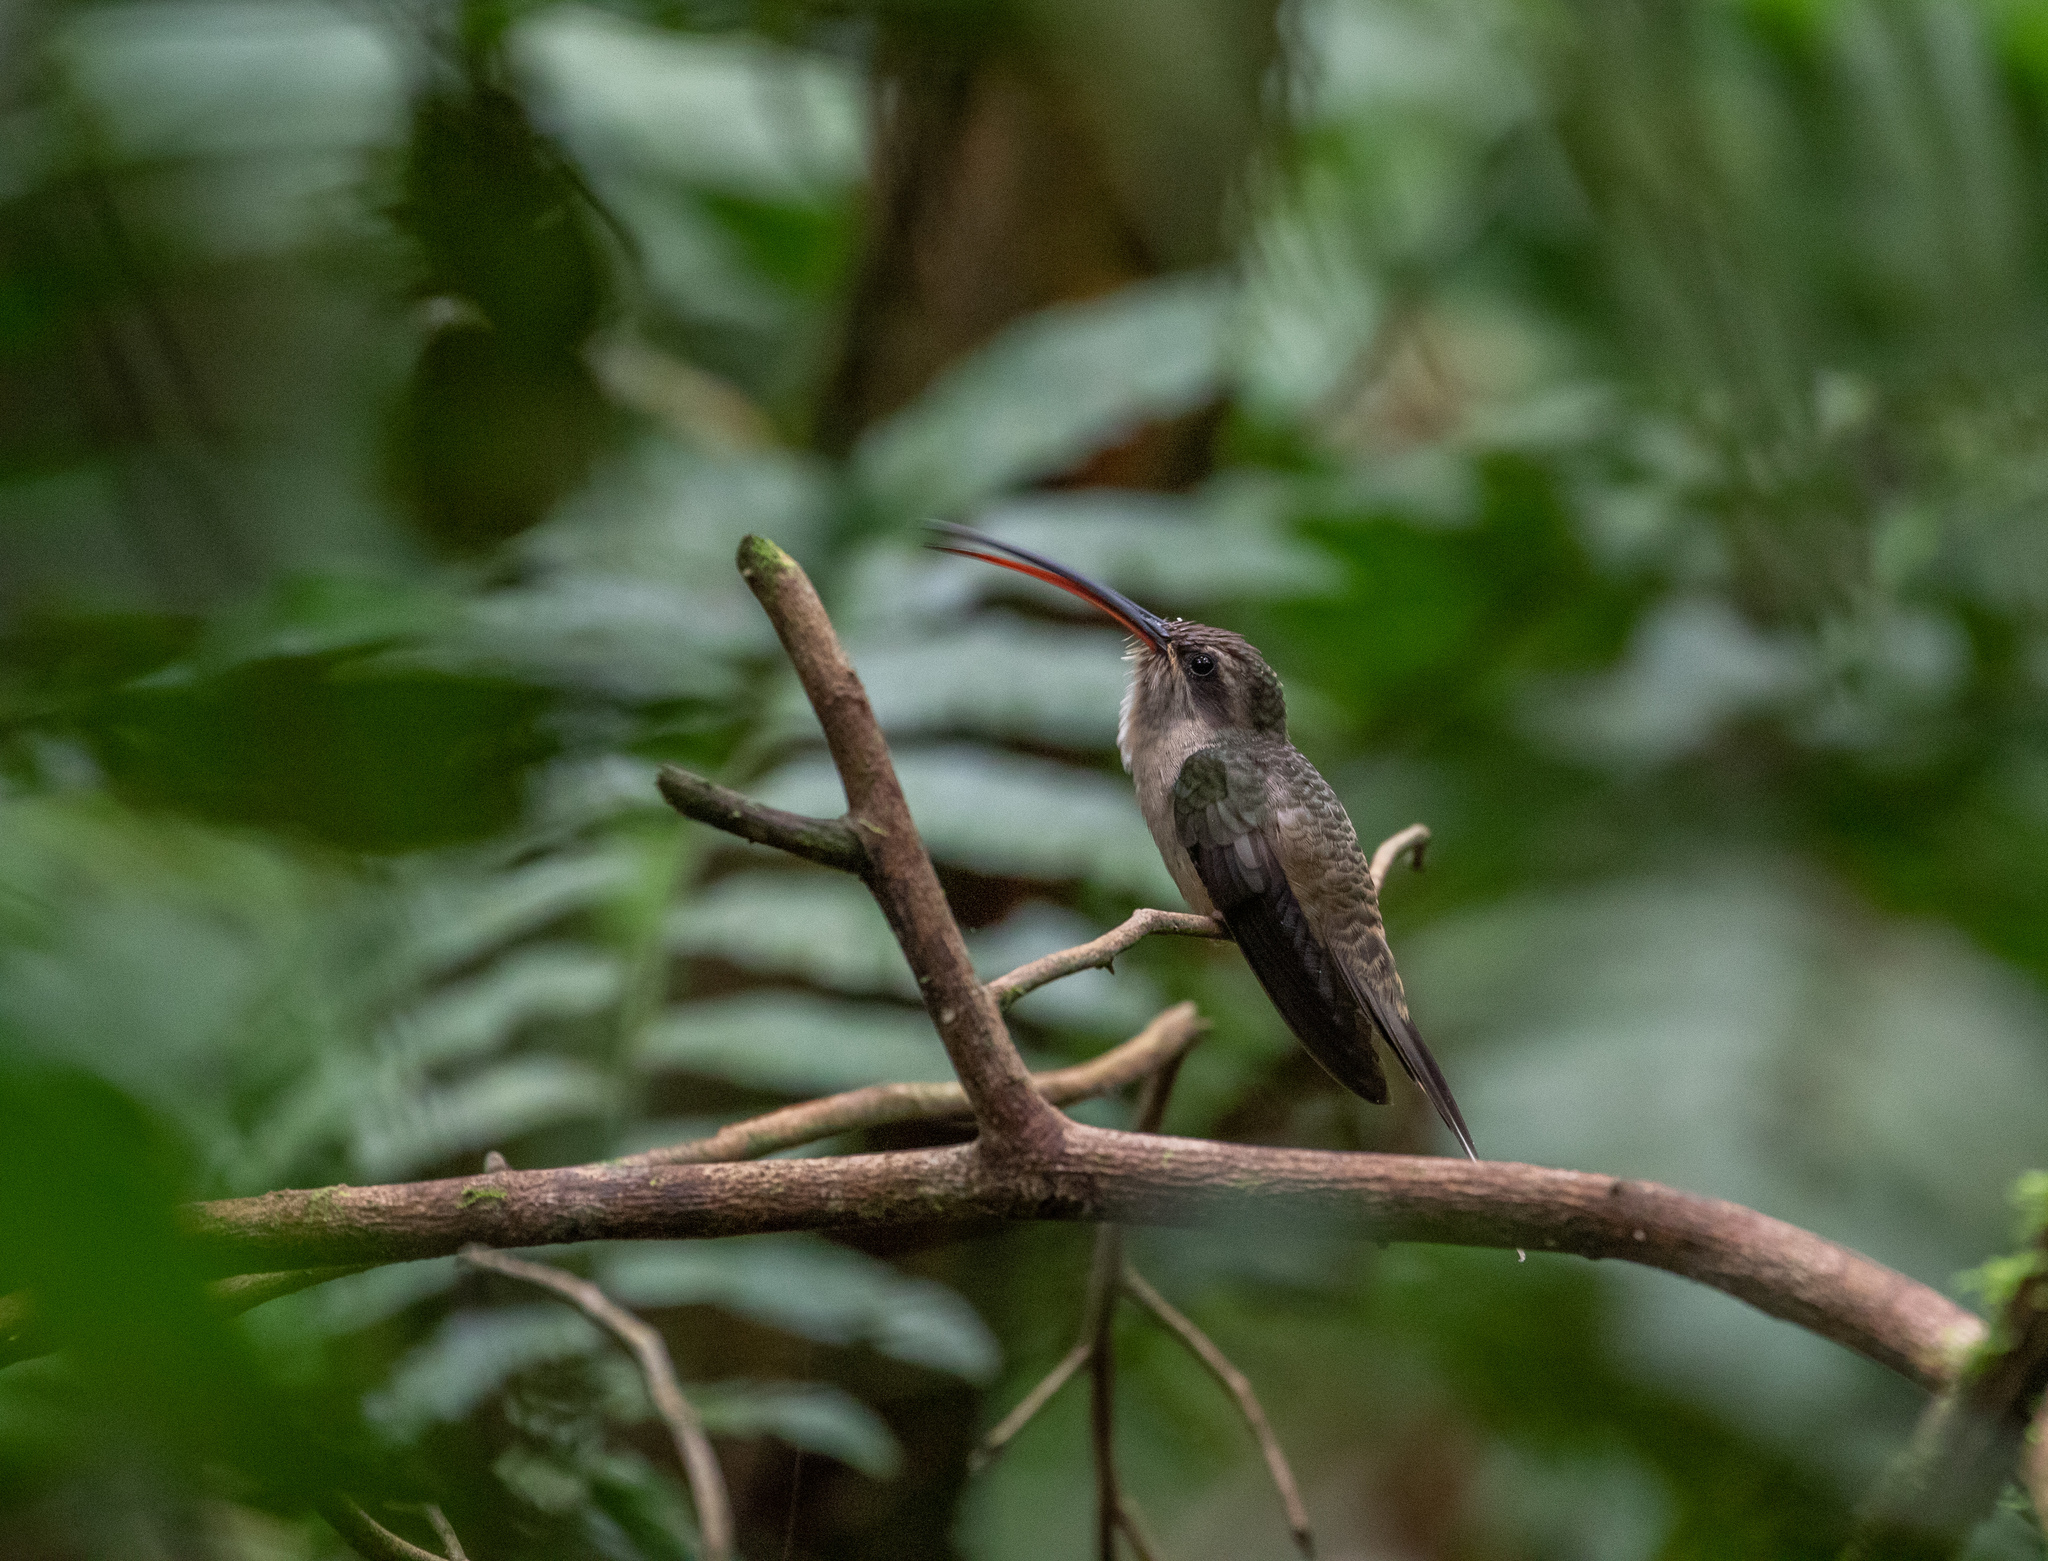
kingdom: Animalia
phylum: Chordata
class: Aves
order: Apodiformes
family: Trochilidae
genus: Phaethornis
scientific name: Phaethornis malaris
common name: Great-billed hermit
